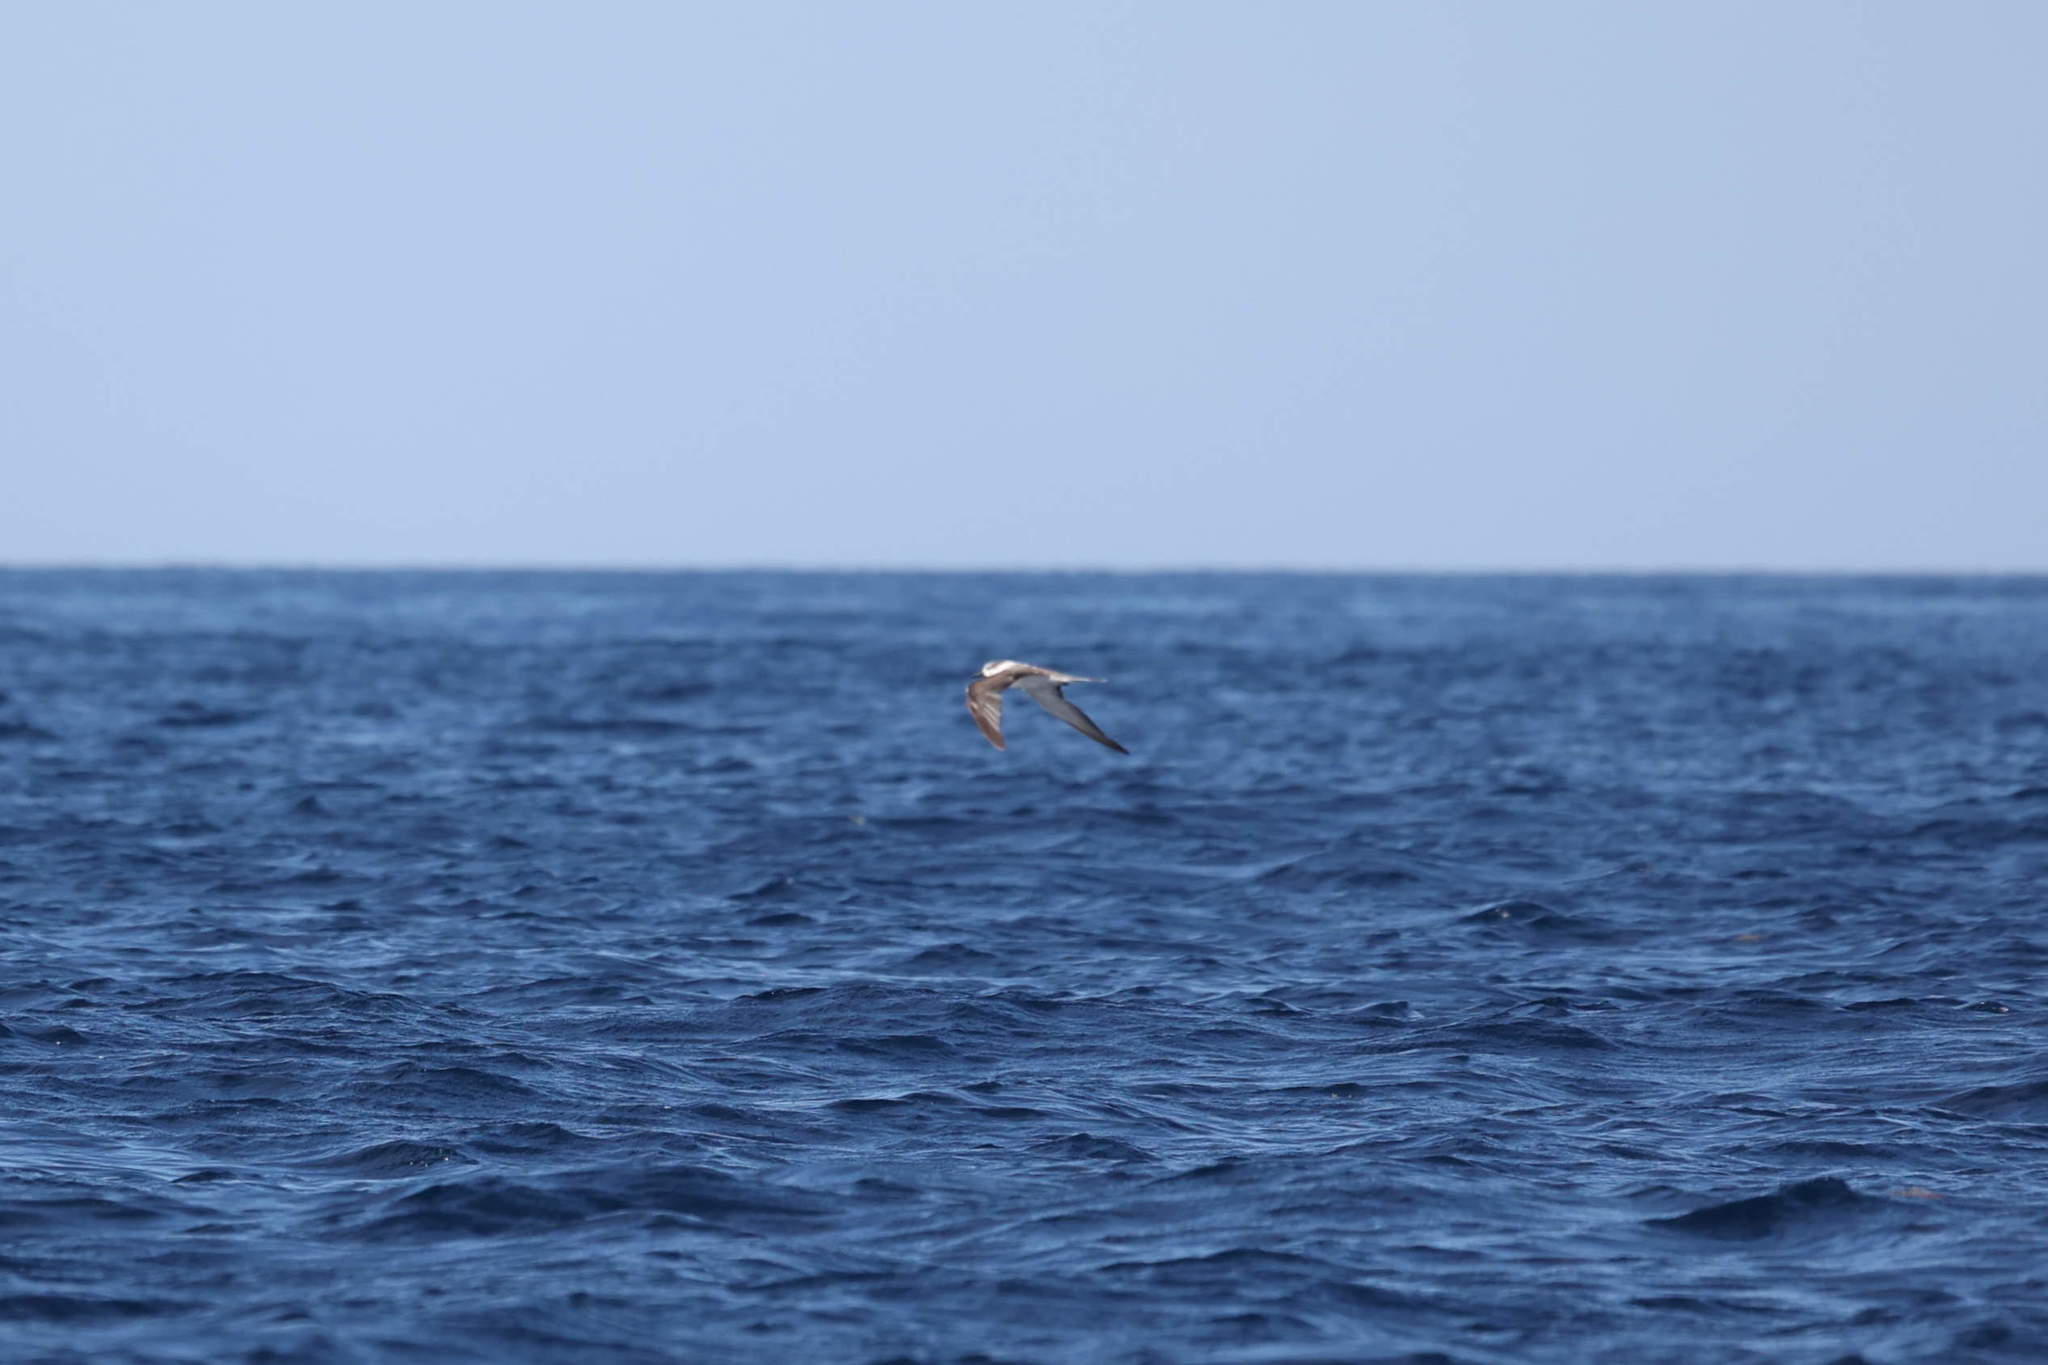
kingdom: Animalia
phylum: Chordata
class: Aves
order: Charadriiformes
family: Laridae
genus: Onychoprion
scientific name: Onychoprion anaethetus
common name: Bridled tern
